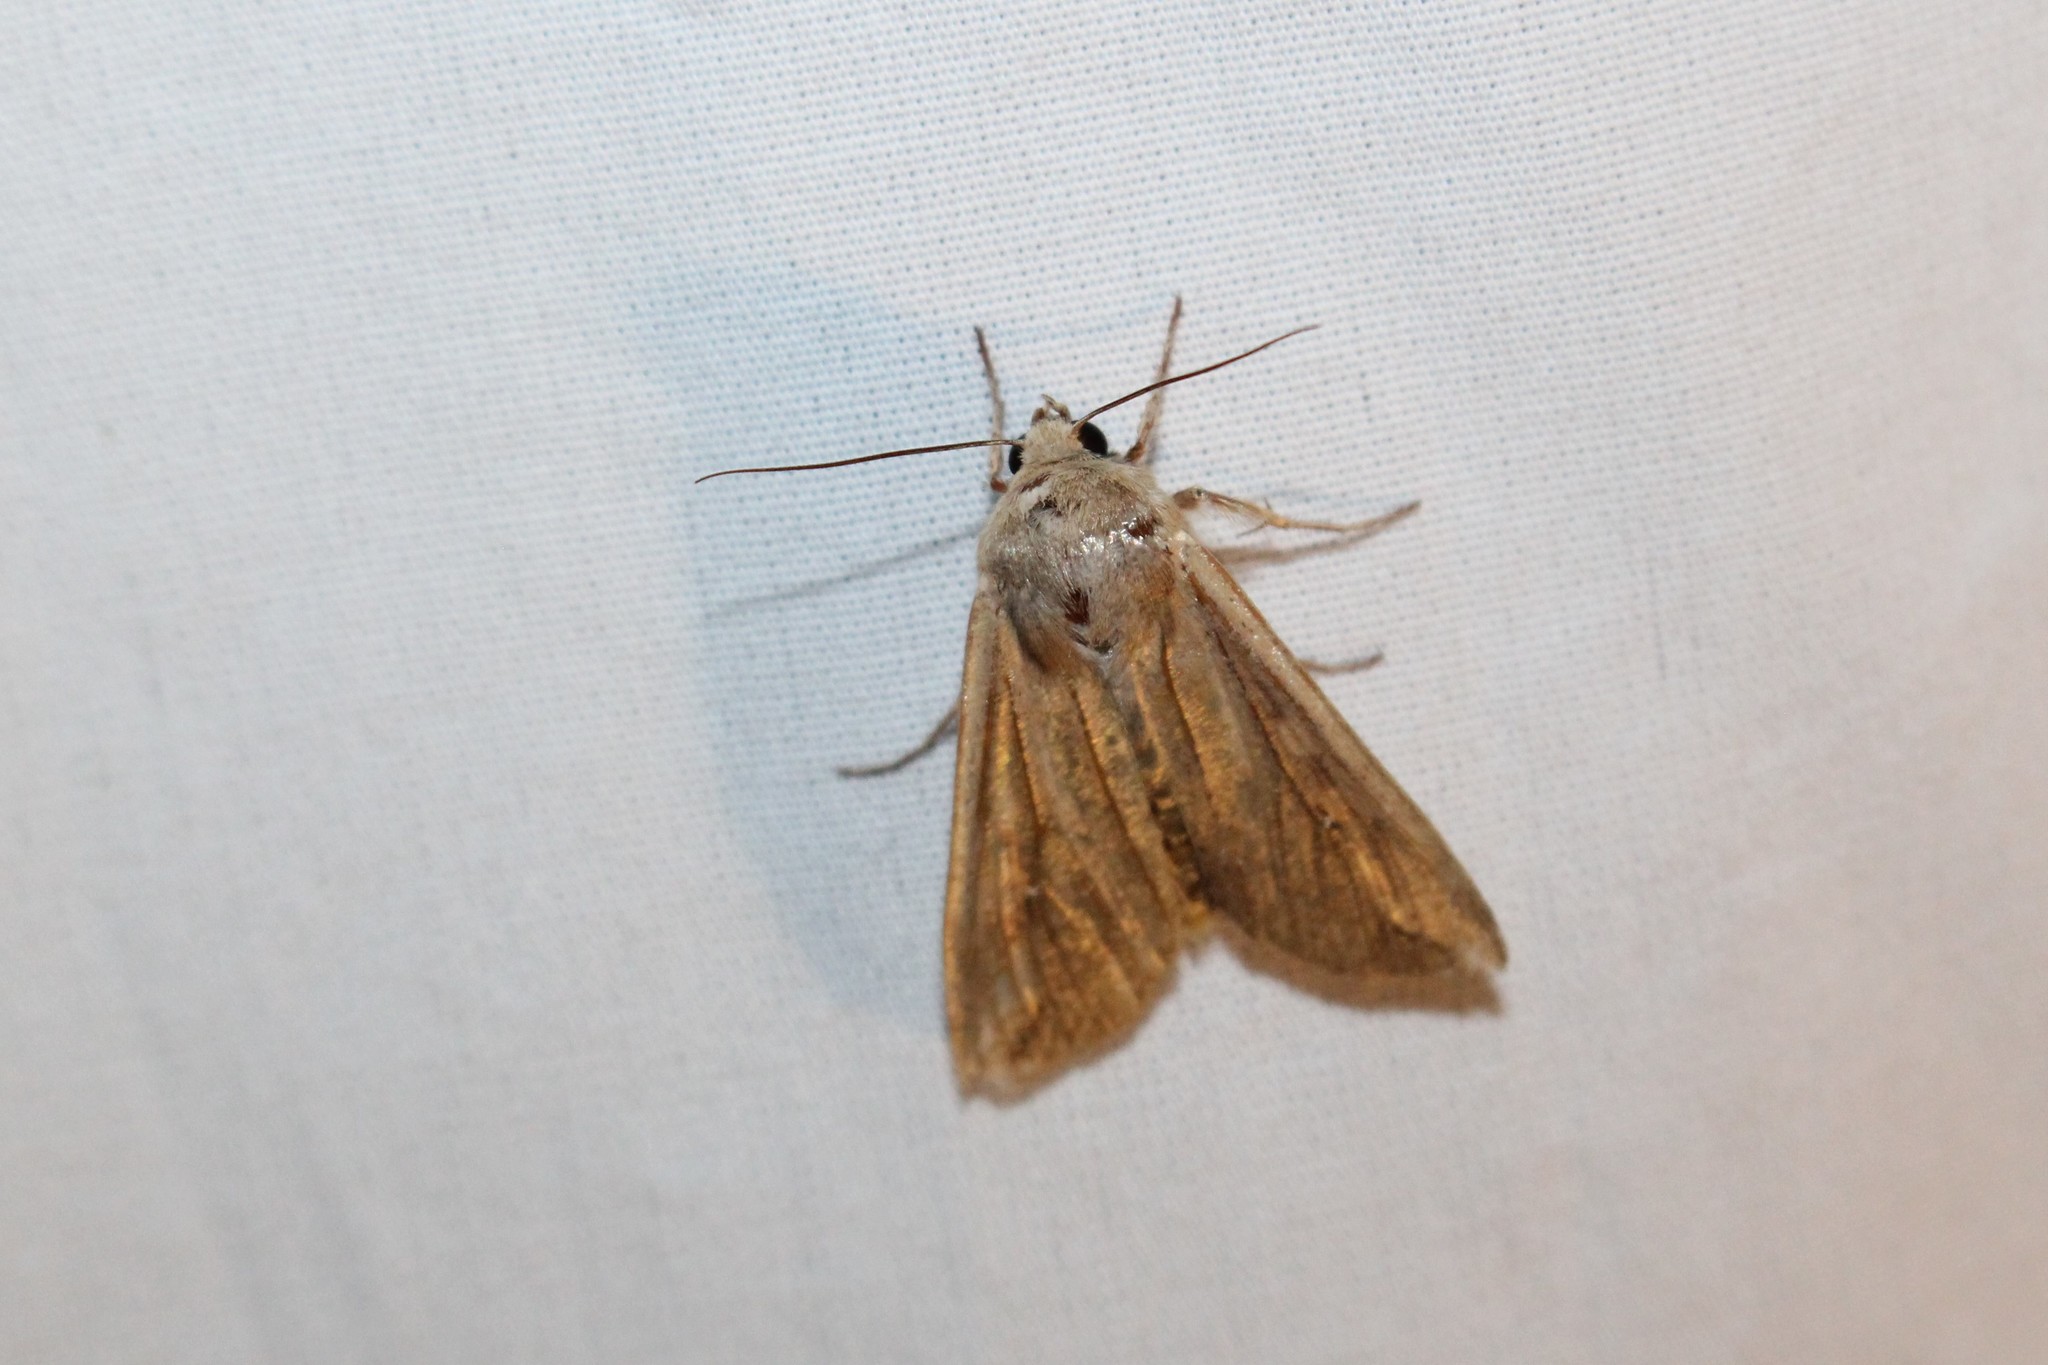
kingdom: Animalia
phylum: Arthropoda
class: Insecta
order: Lepidoptera
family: Noctuidae
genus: Mythimna
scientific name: Mythimna unipuncta
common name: White-speck
